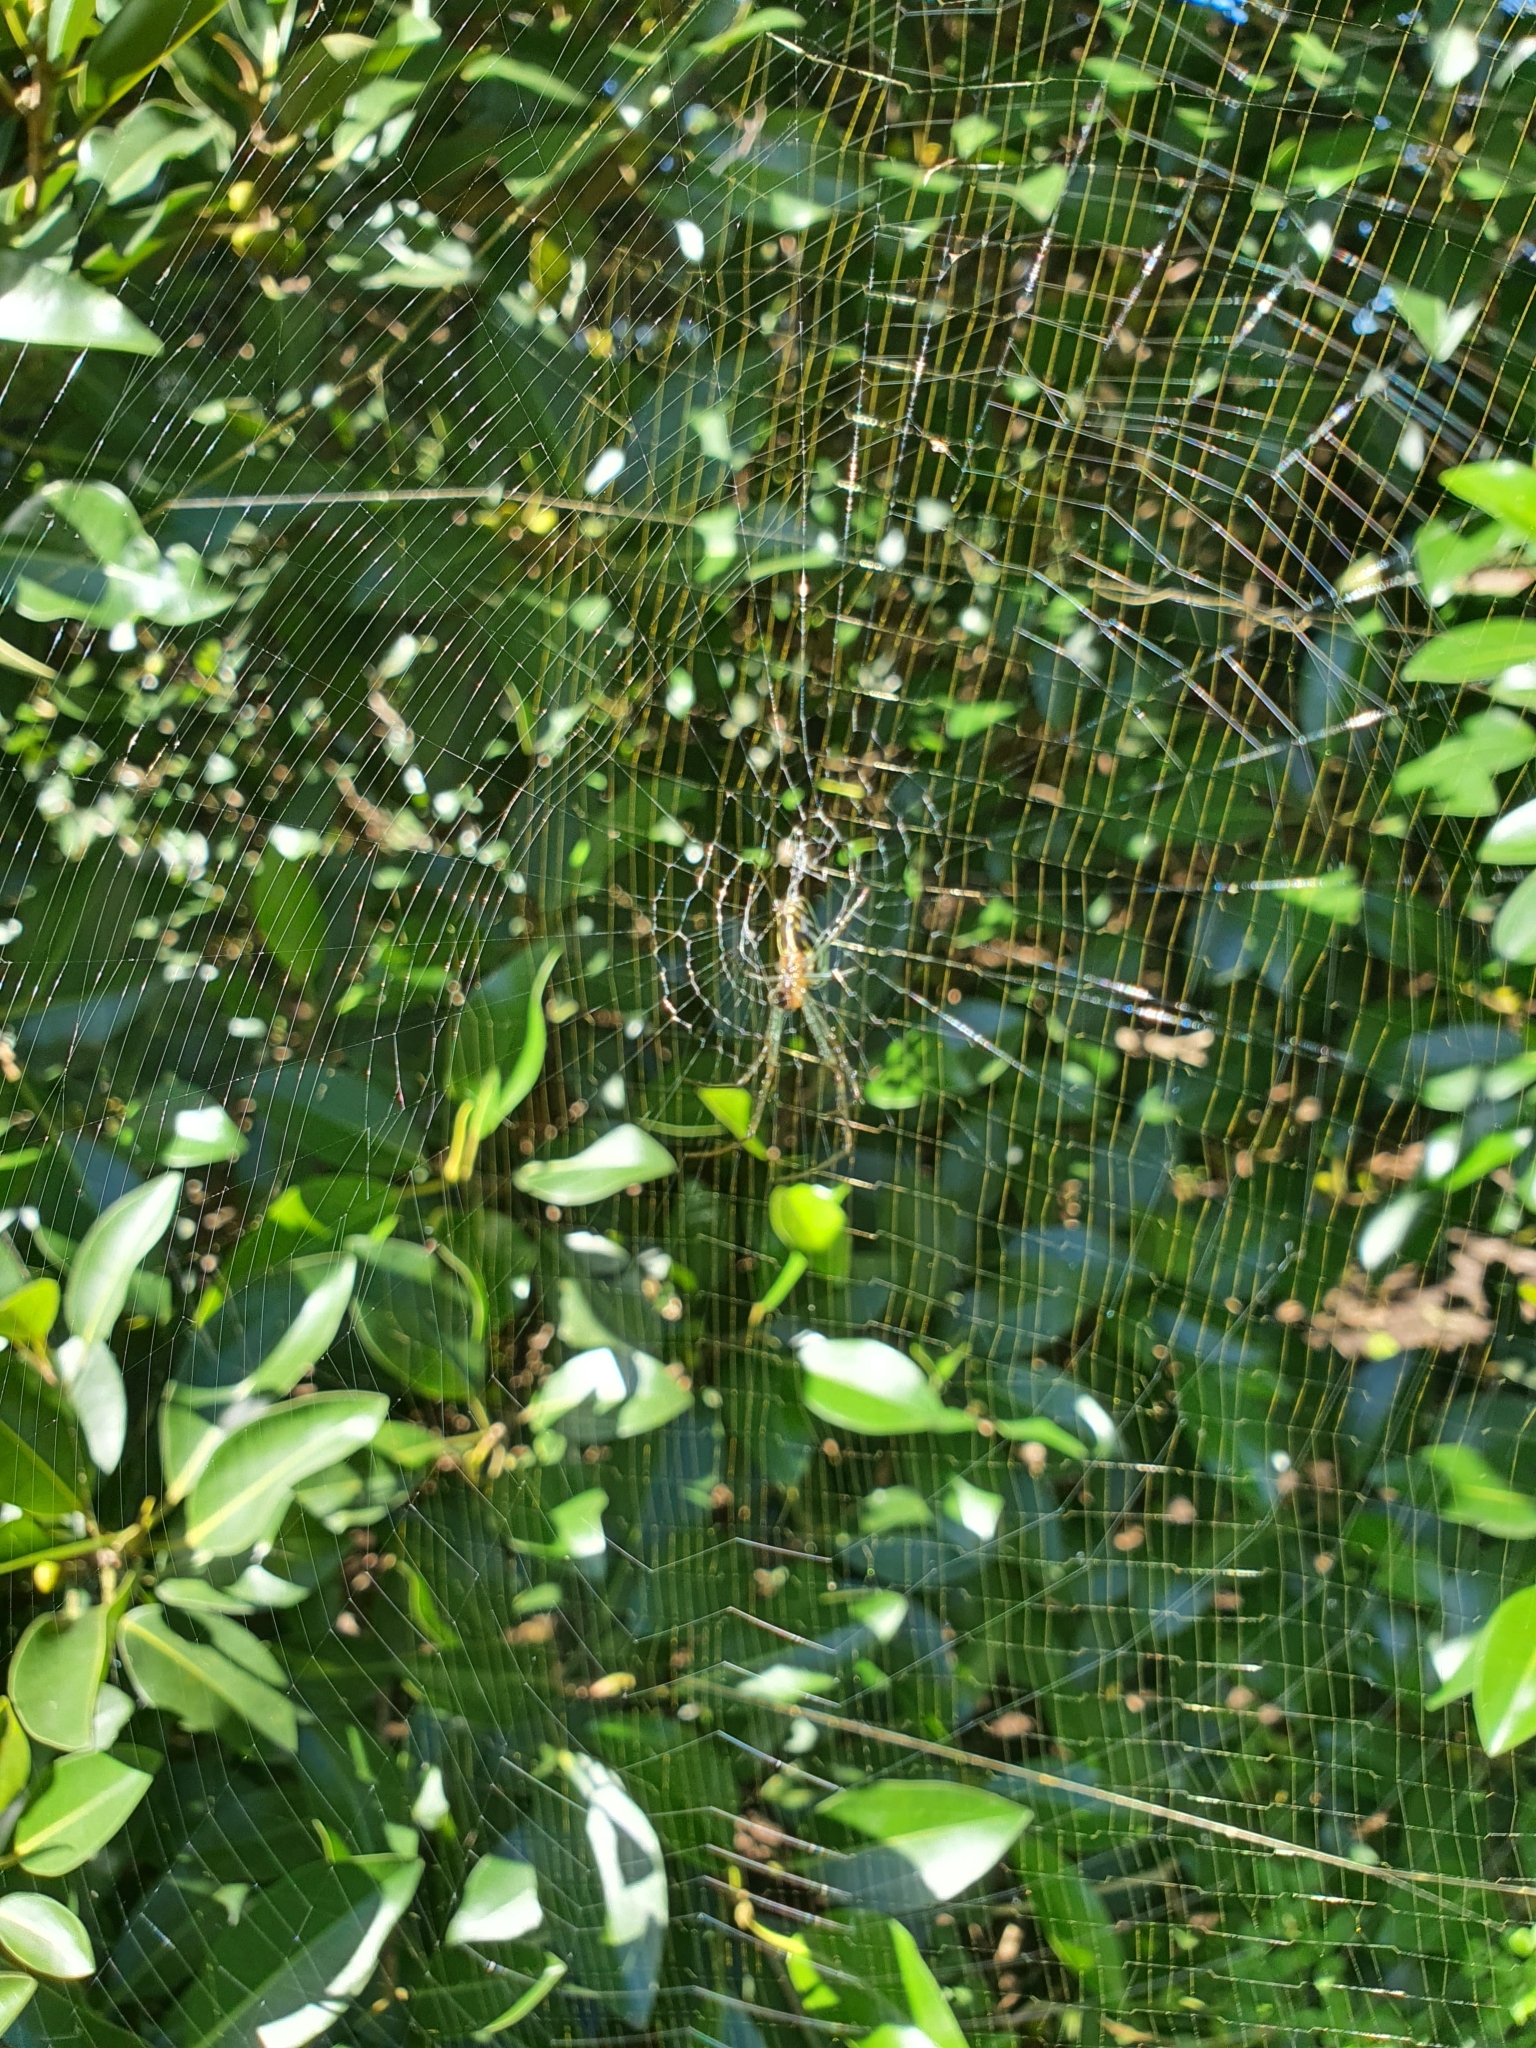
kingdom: Animalia
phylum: Arthropoda
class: Arachnida
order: Araneae
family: Tetragnathidae
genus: Leucauge
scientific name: Leucauge dromedaria
